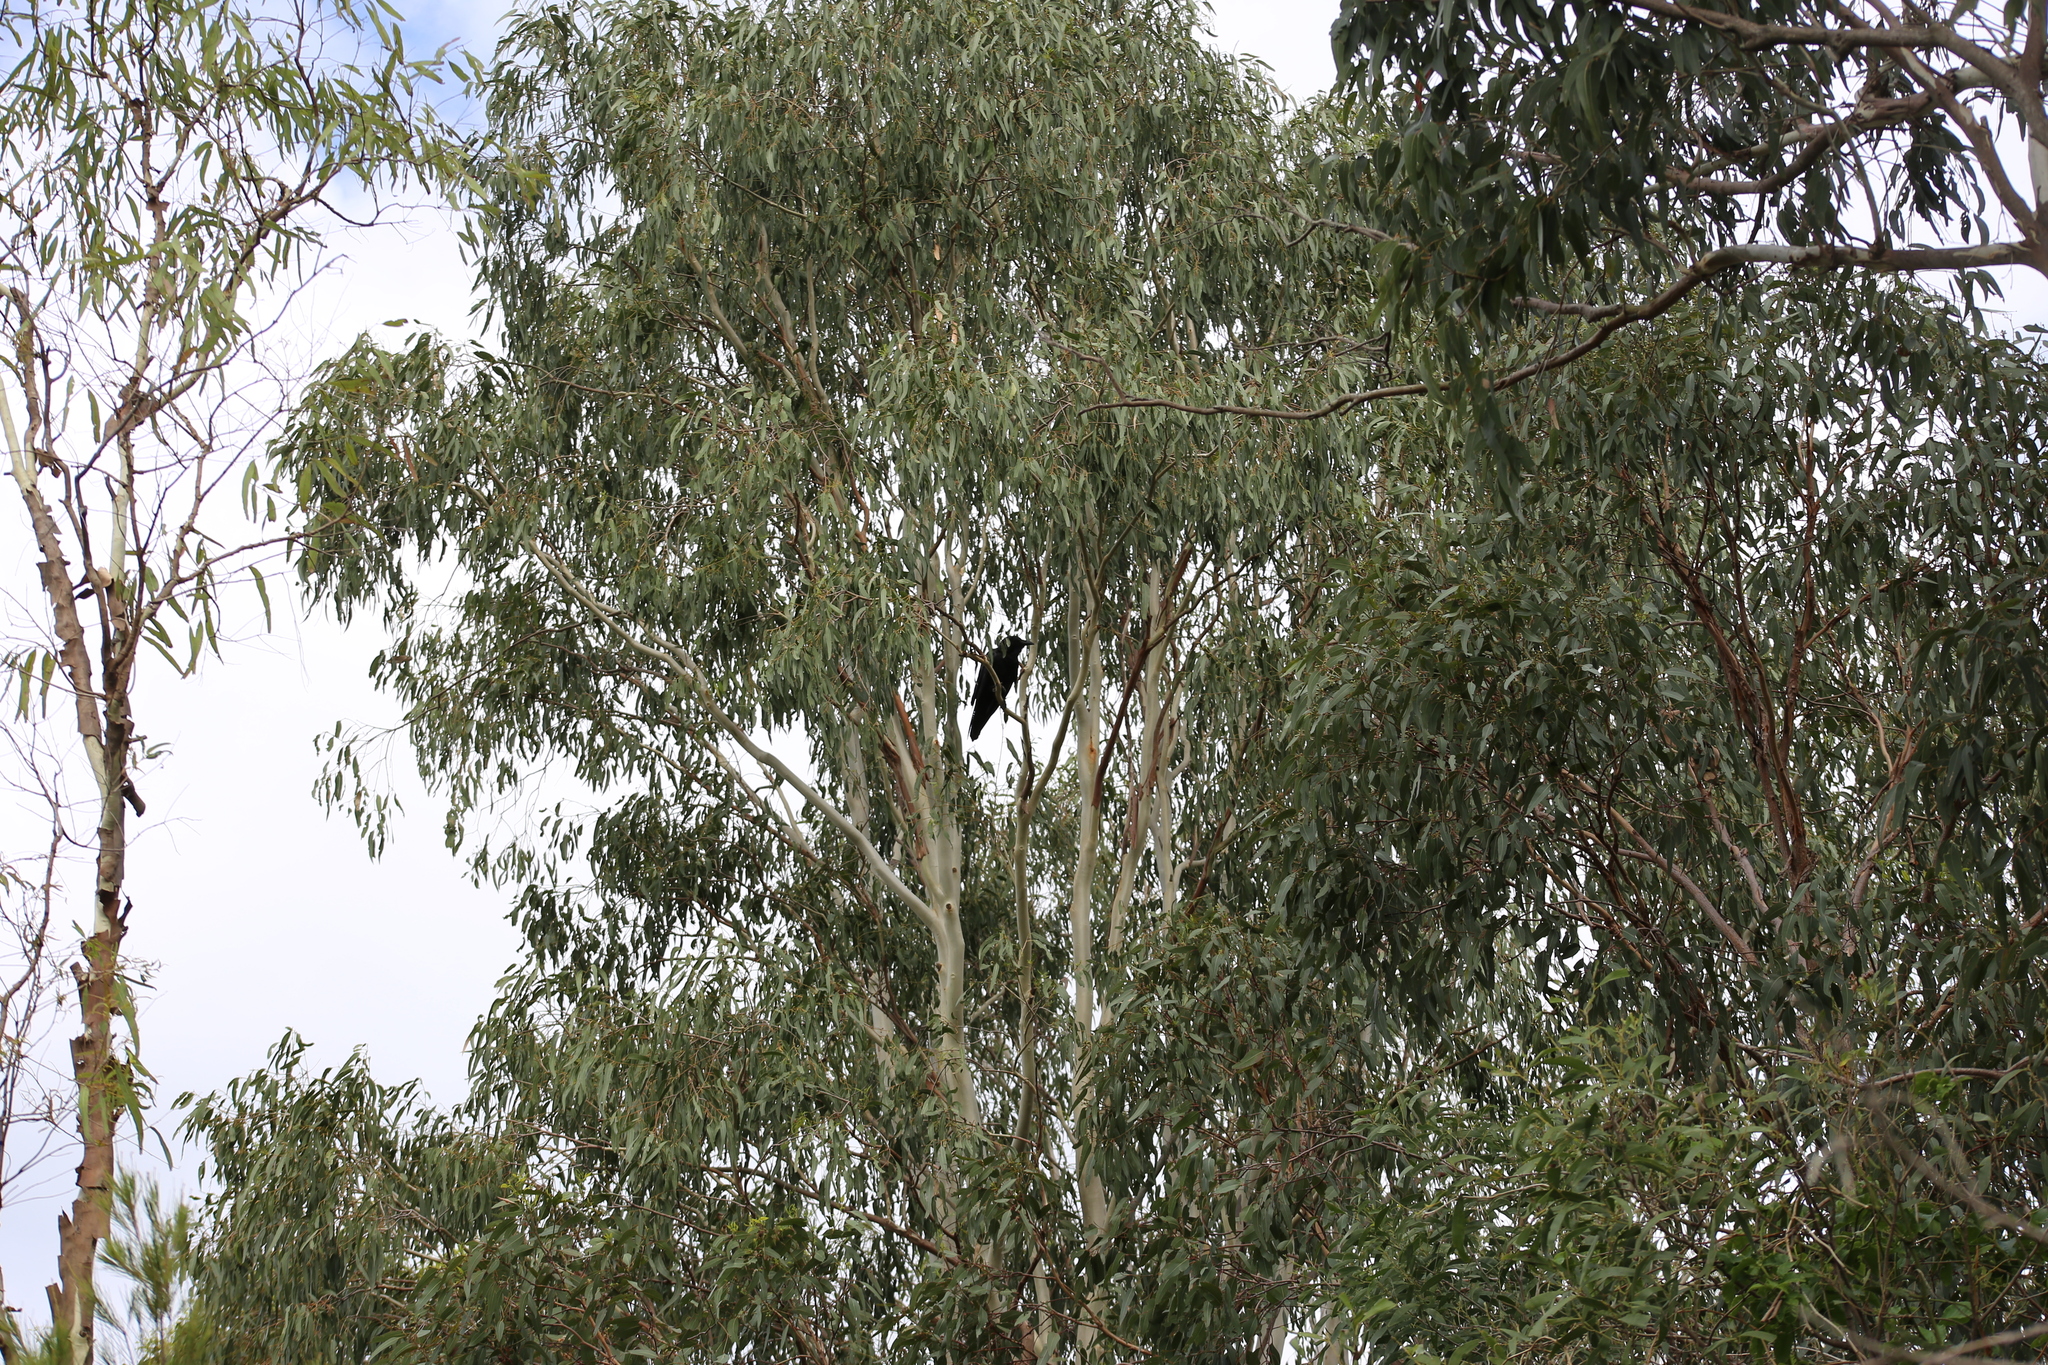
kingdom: Animalia
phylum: Chordata
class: Aves
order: Passeriformes
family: Corvidae
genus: Corvus
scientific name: Corvus orru
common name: Torresian crow
